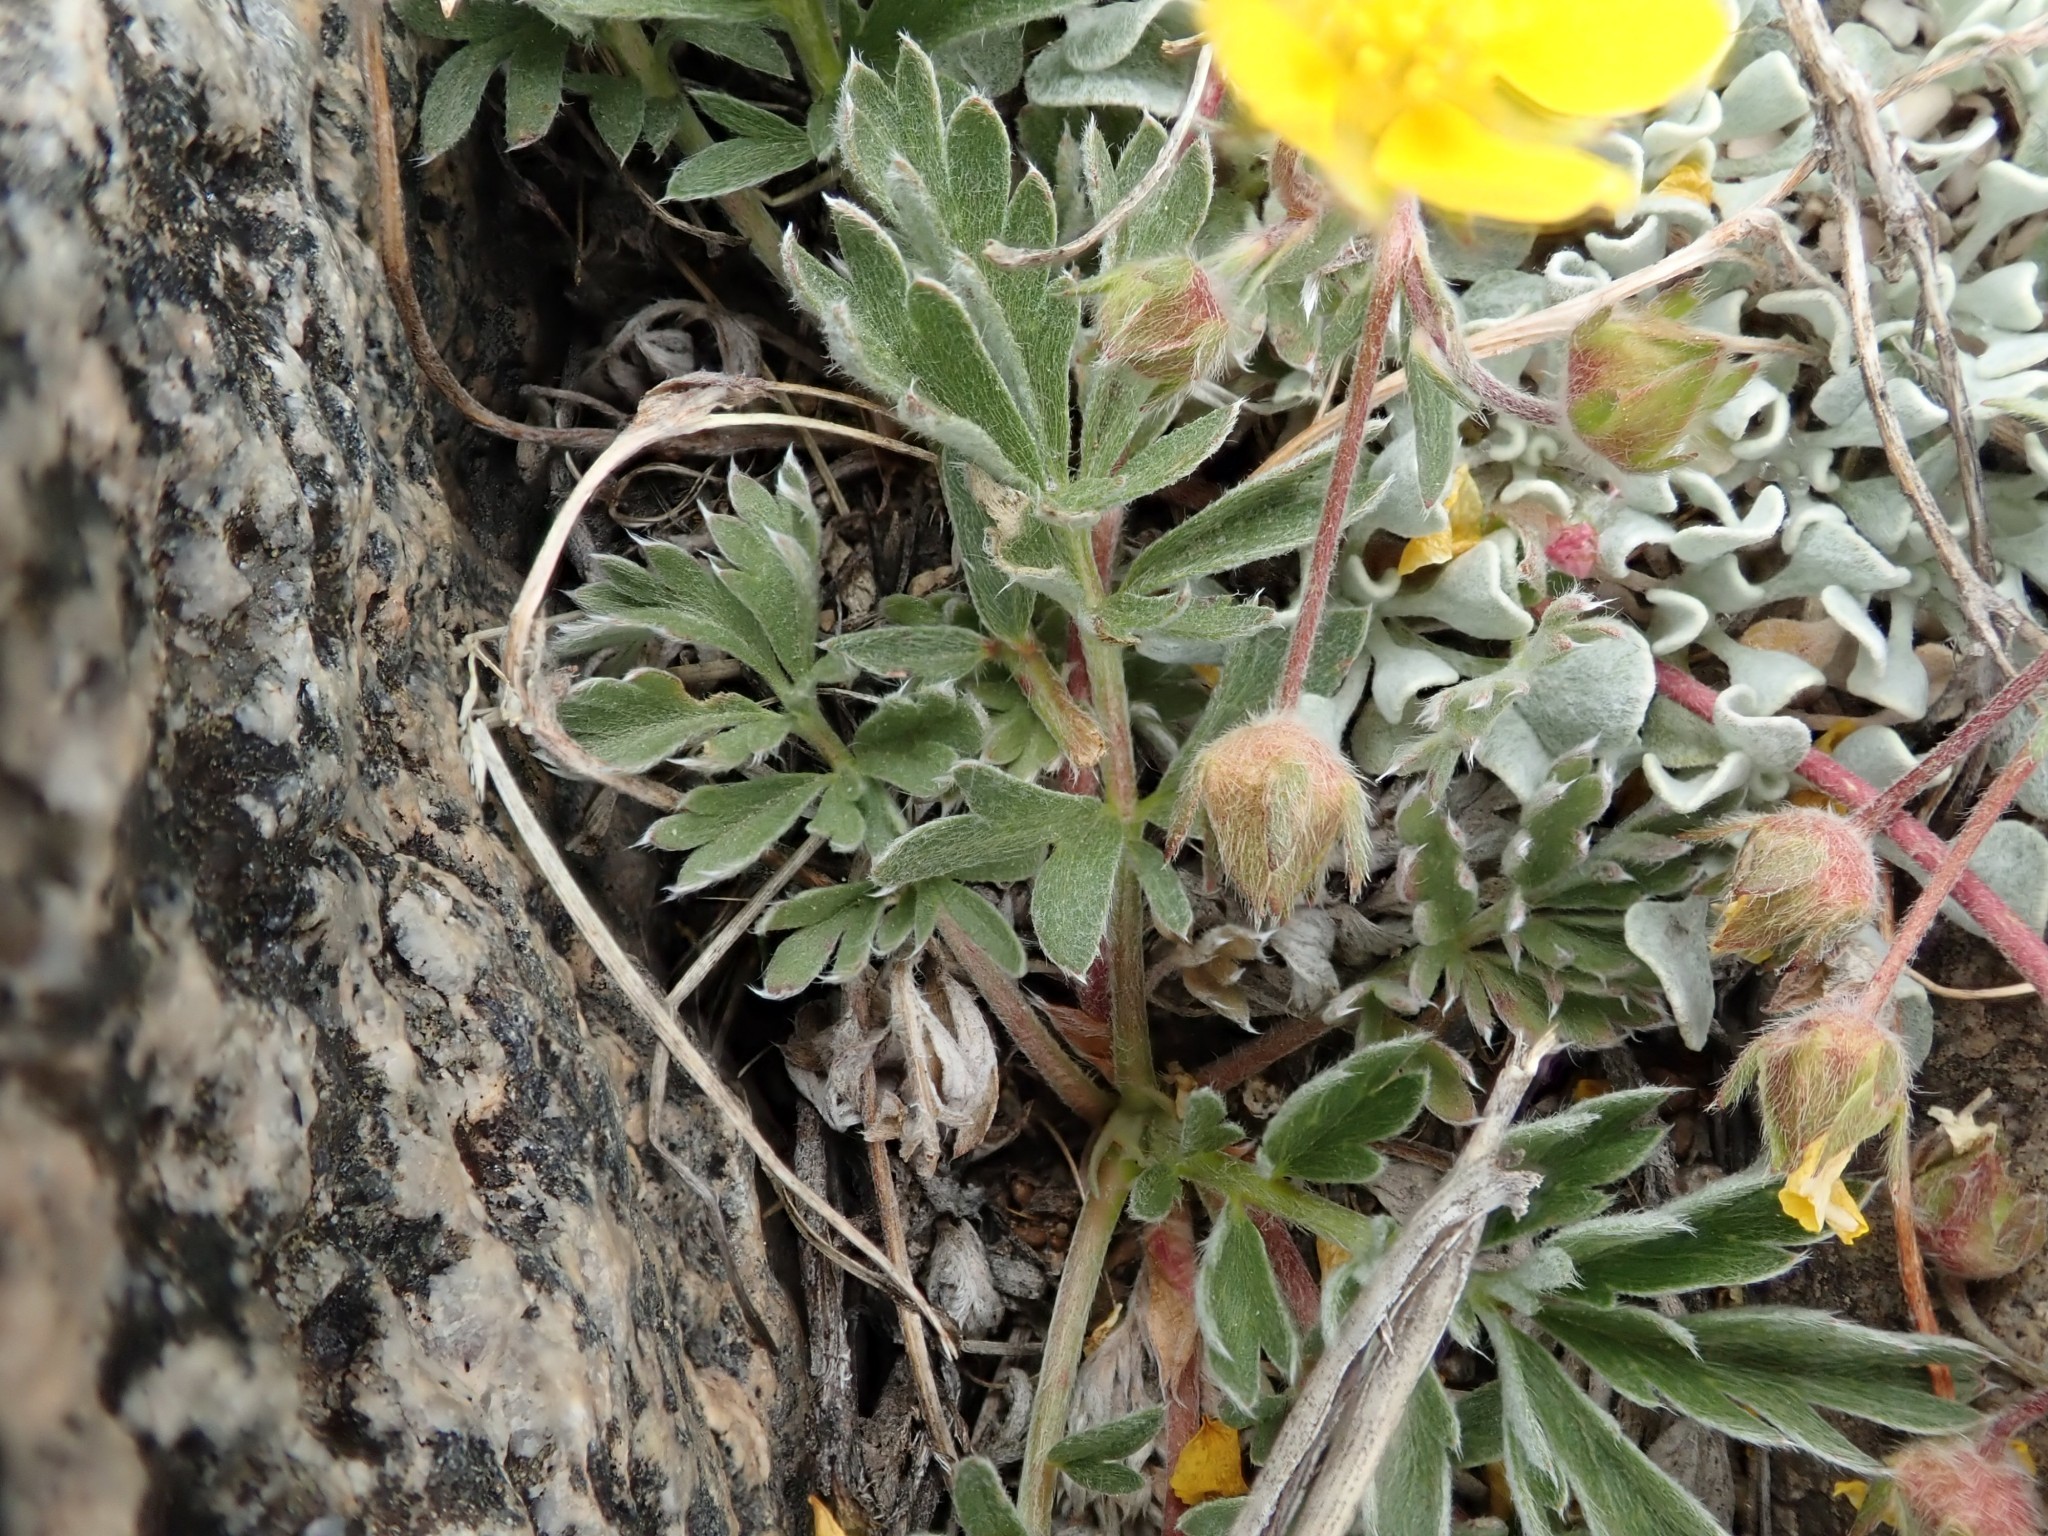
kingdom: Plantae
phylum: Tracheophyta
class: Magnoliopsida
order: Rosales
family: Rosaceae
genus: Potentilla
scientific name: Potentilla morefieldii
